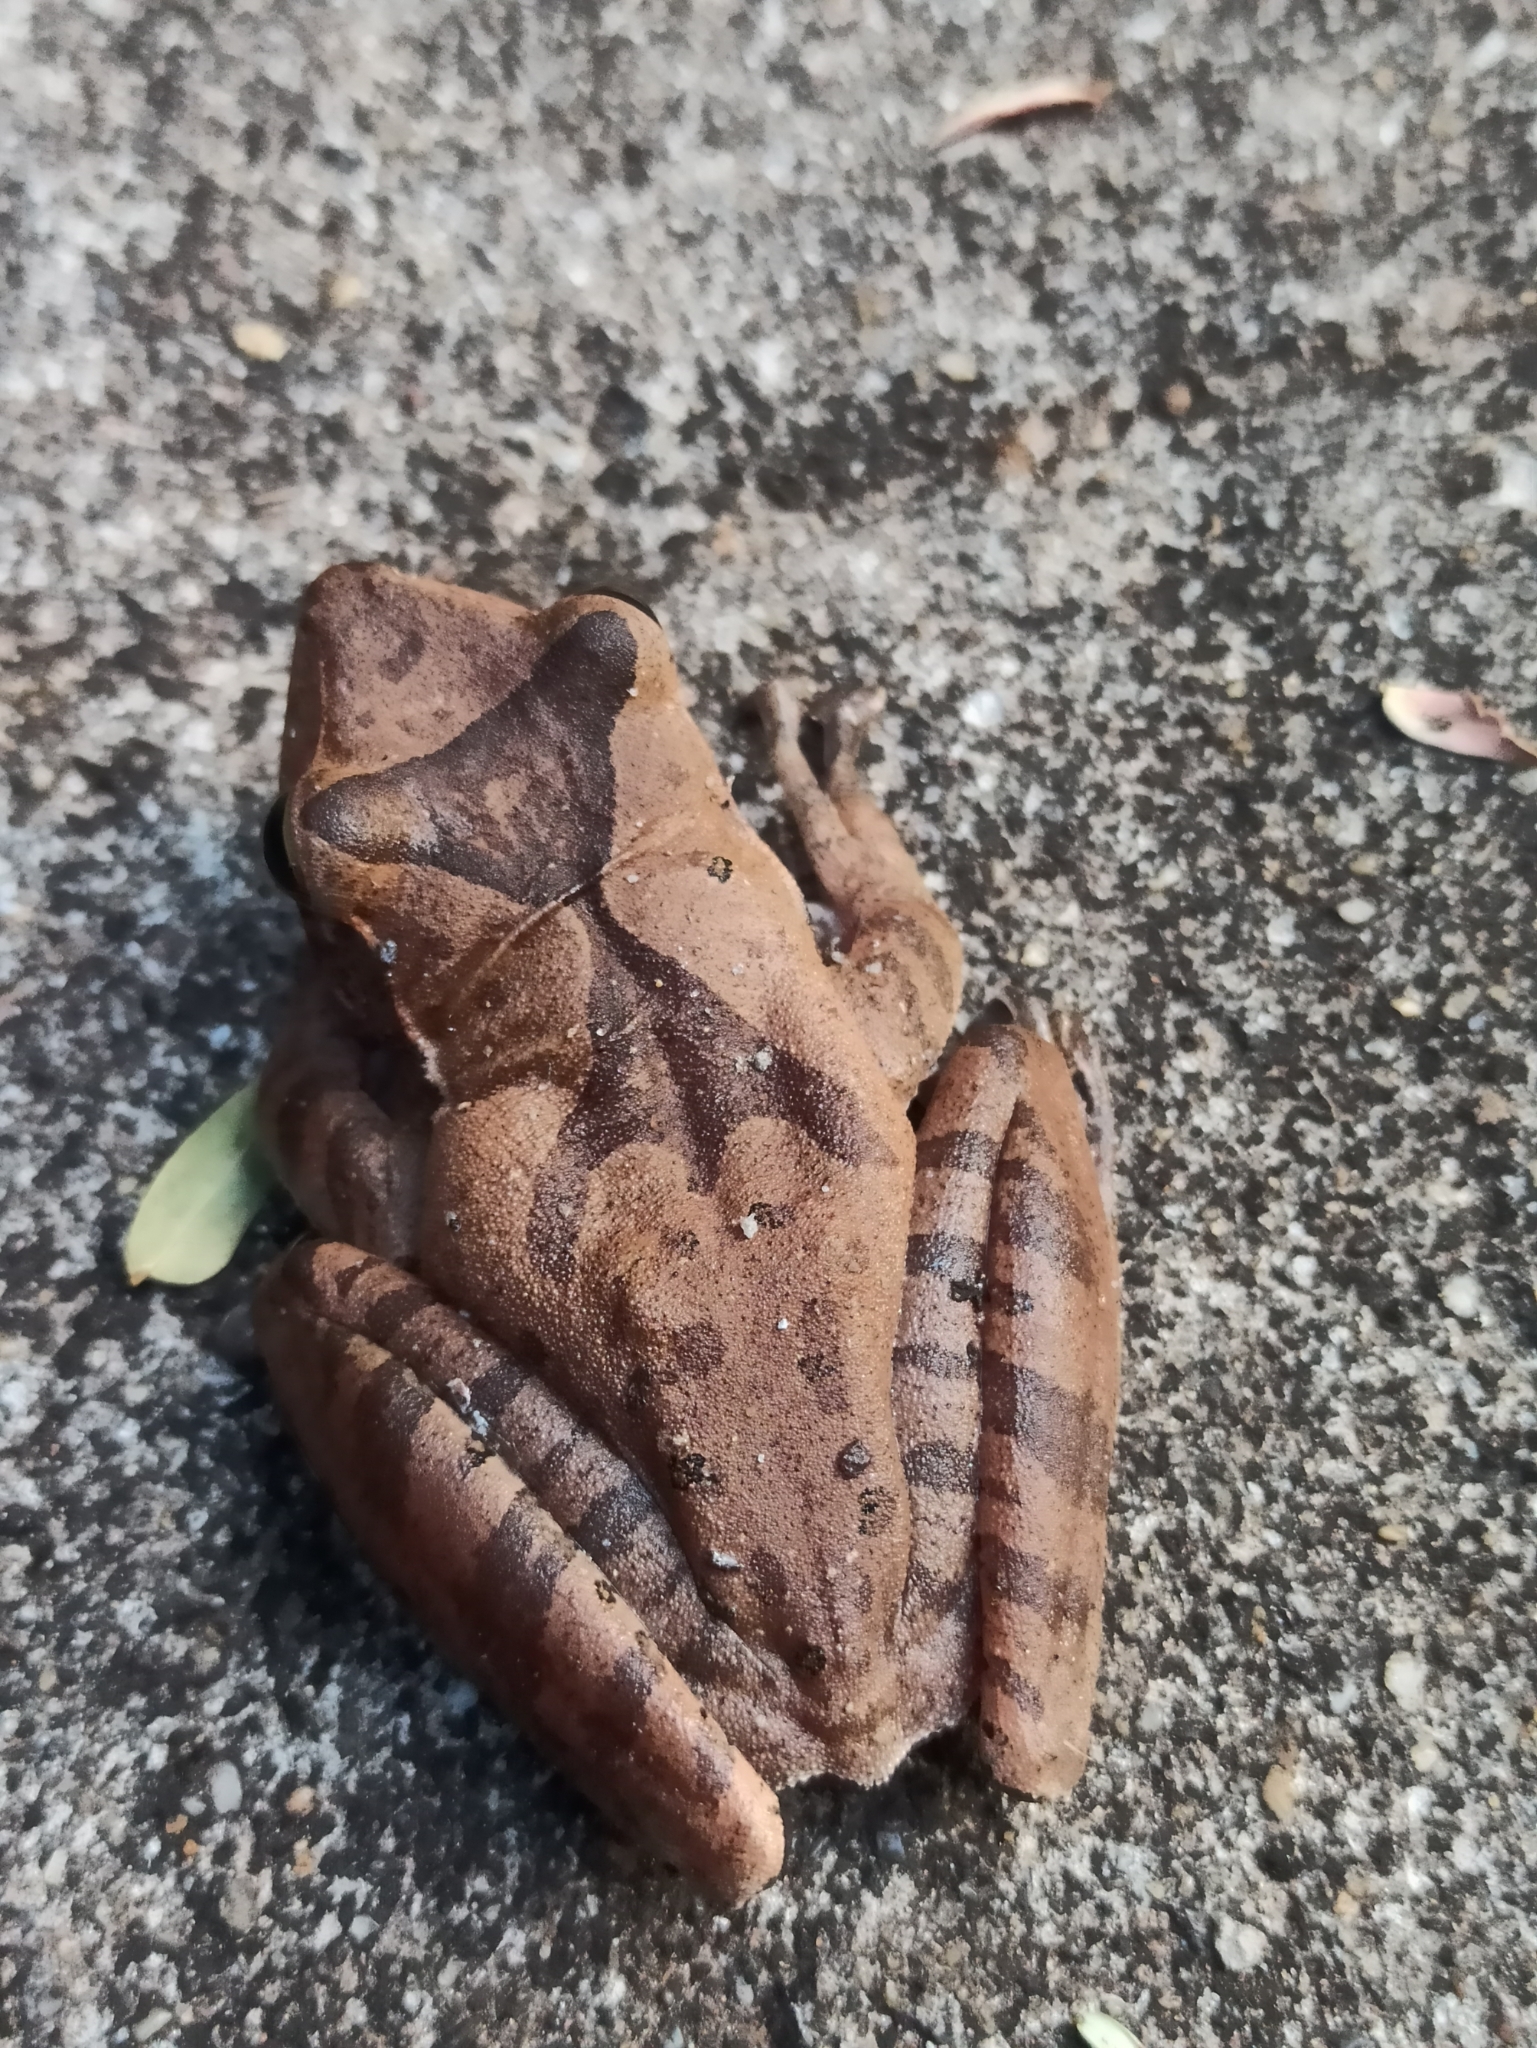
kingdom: Animalia
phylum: Chordata
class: Amphibia
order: Anura
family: Rhacophoridae
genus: Polypedates
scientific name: Polypedates occidentalis
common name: Charpa tree frog
